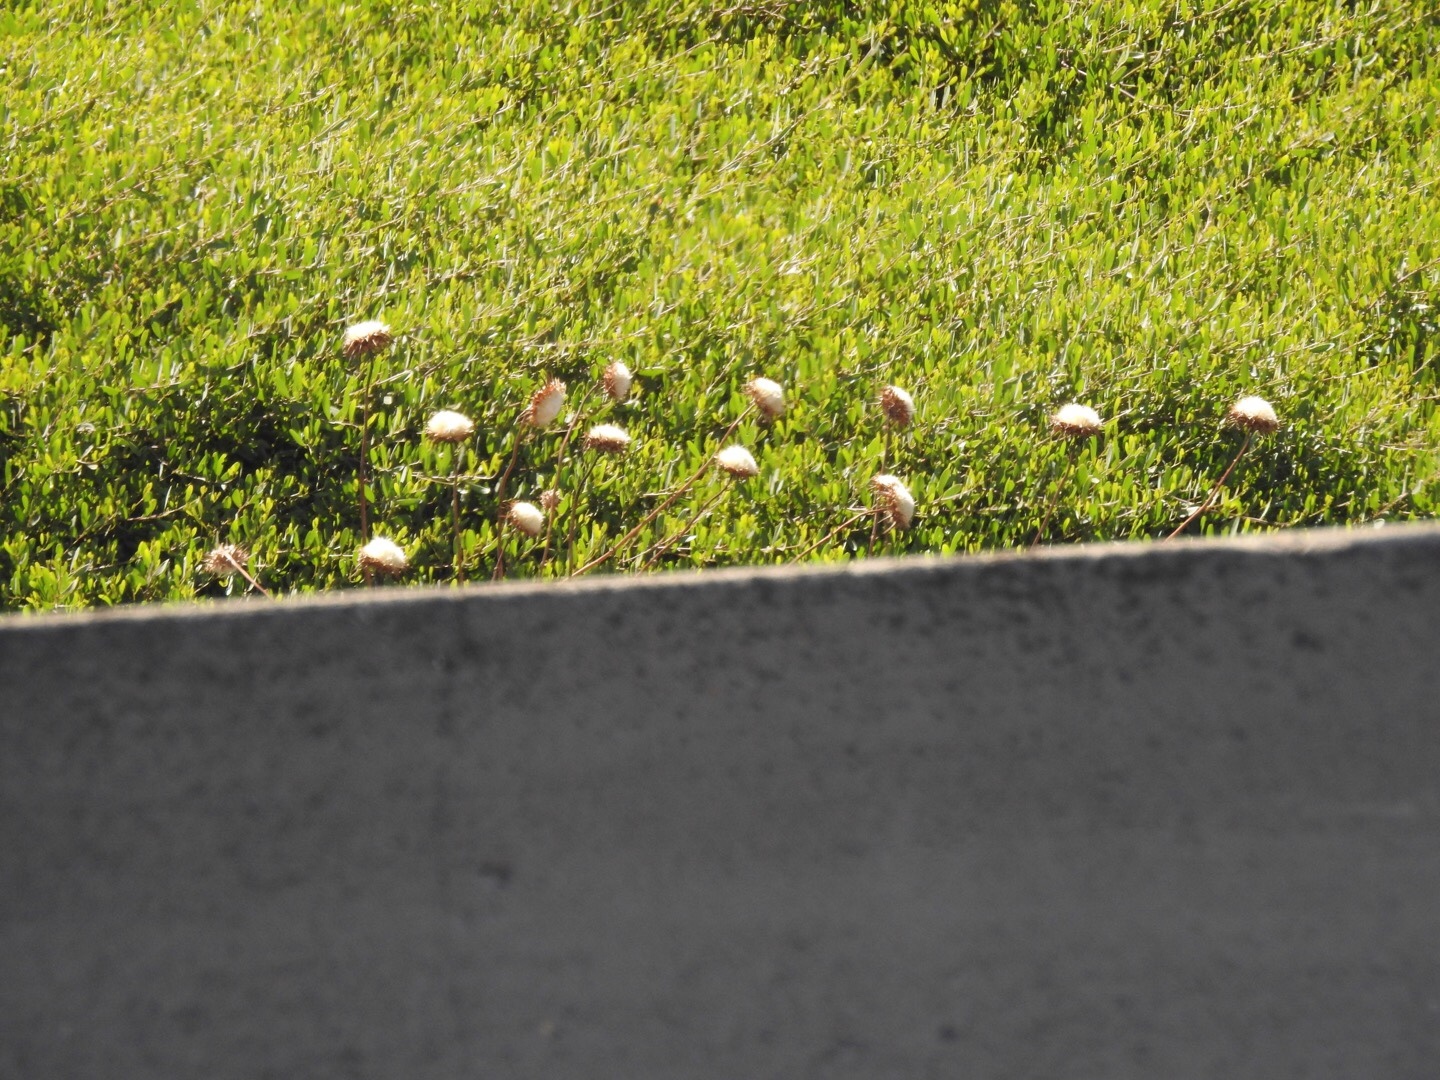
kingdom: Plantae
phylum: Tracheophyta
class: Magnoliopsida
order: Asterales
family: Asteraceae
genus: Silybum
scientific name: Silybum marianum
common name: Milk thistle
